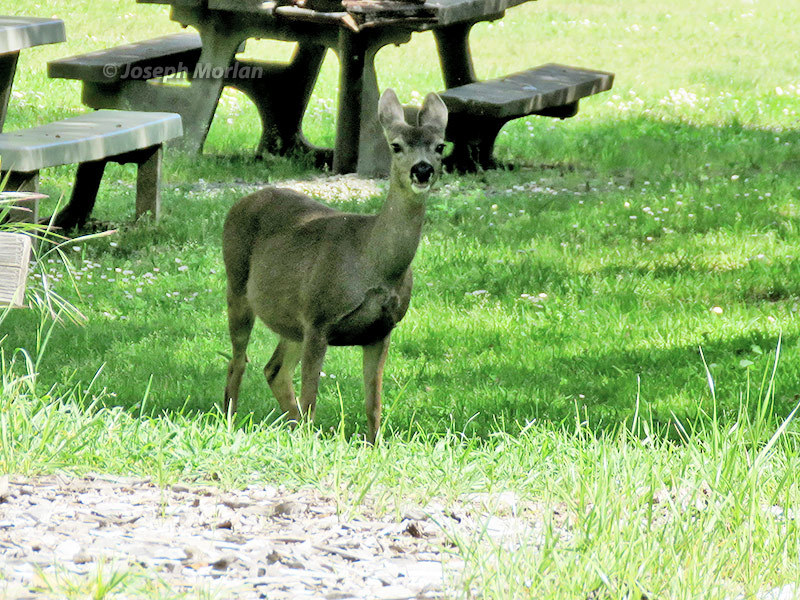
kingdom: Animalia
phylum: Chordata
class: Mammalia
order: Artiodactyla
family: Cervidae
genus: Odocoileus
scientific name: Odocoileus hemionus
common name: Mule deer
